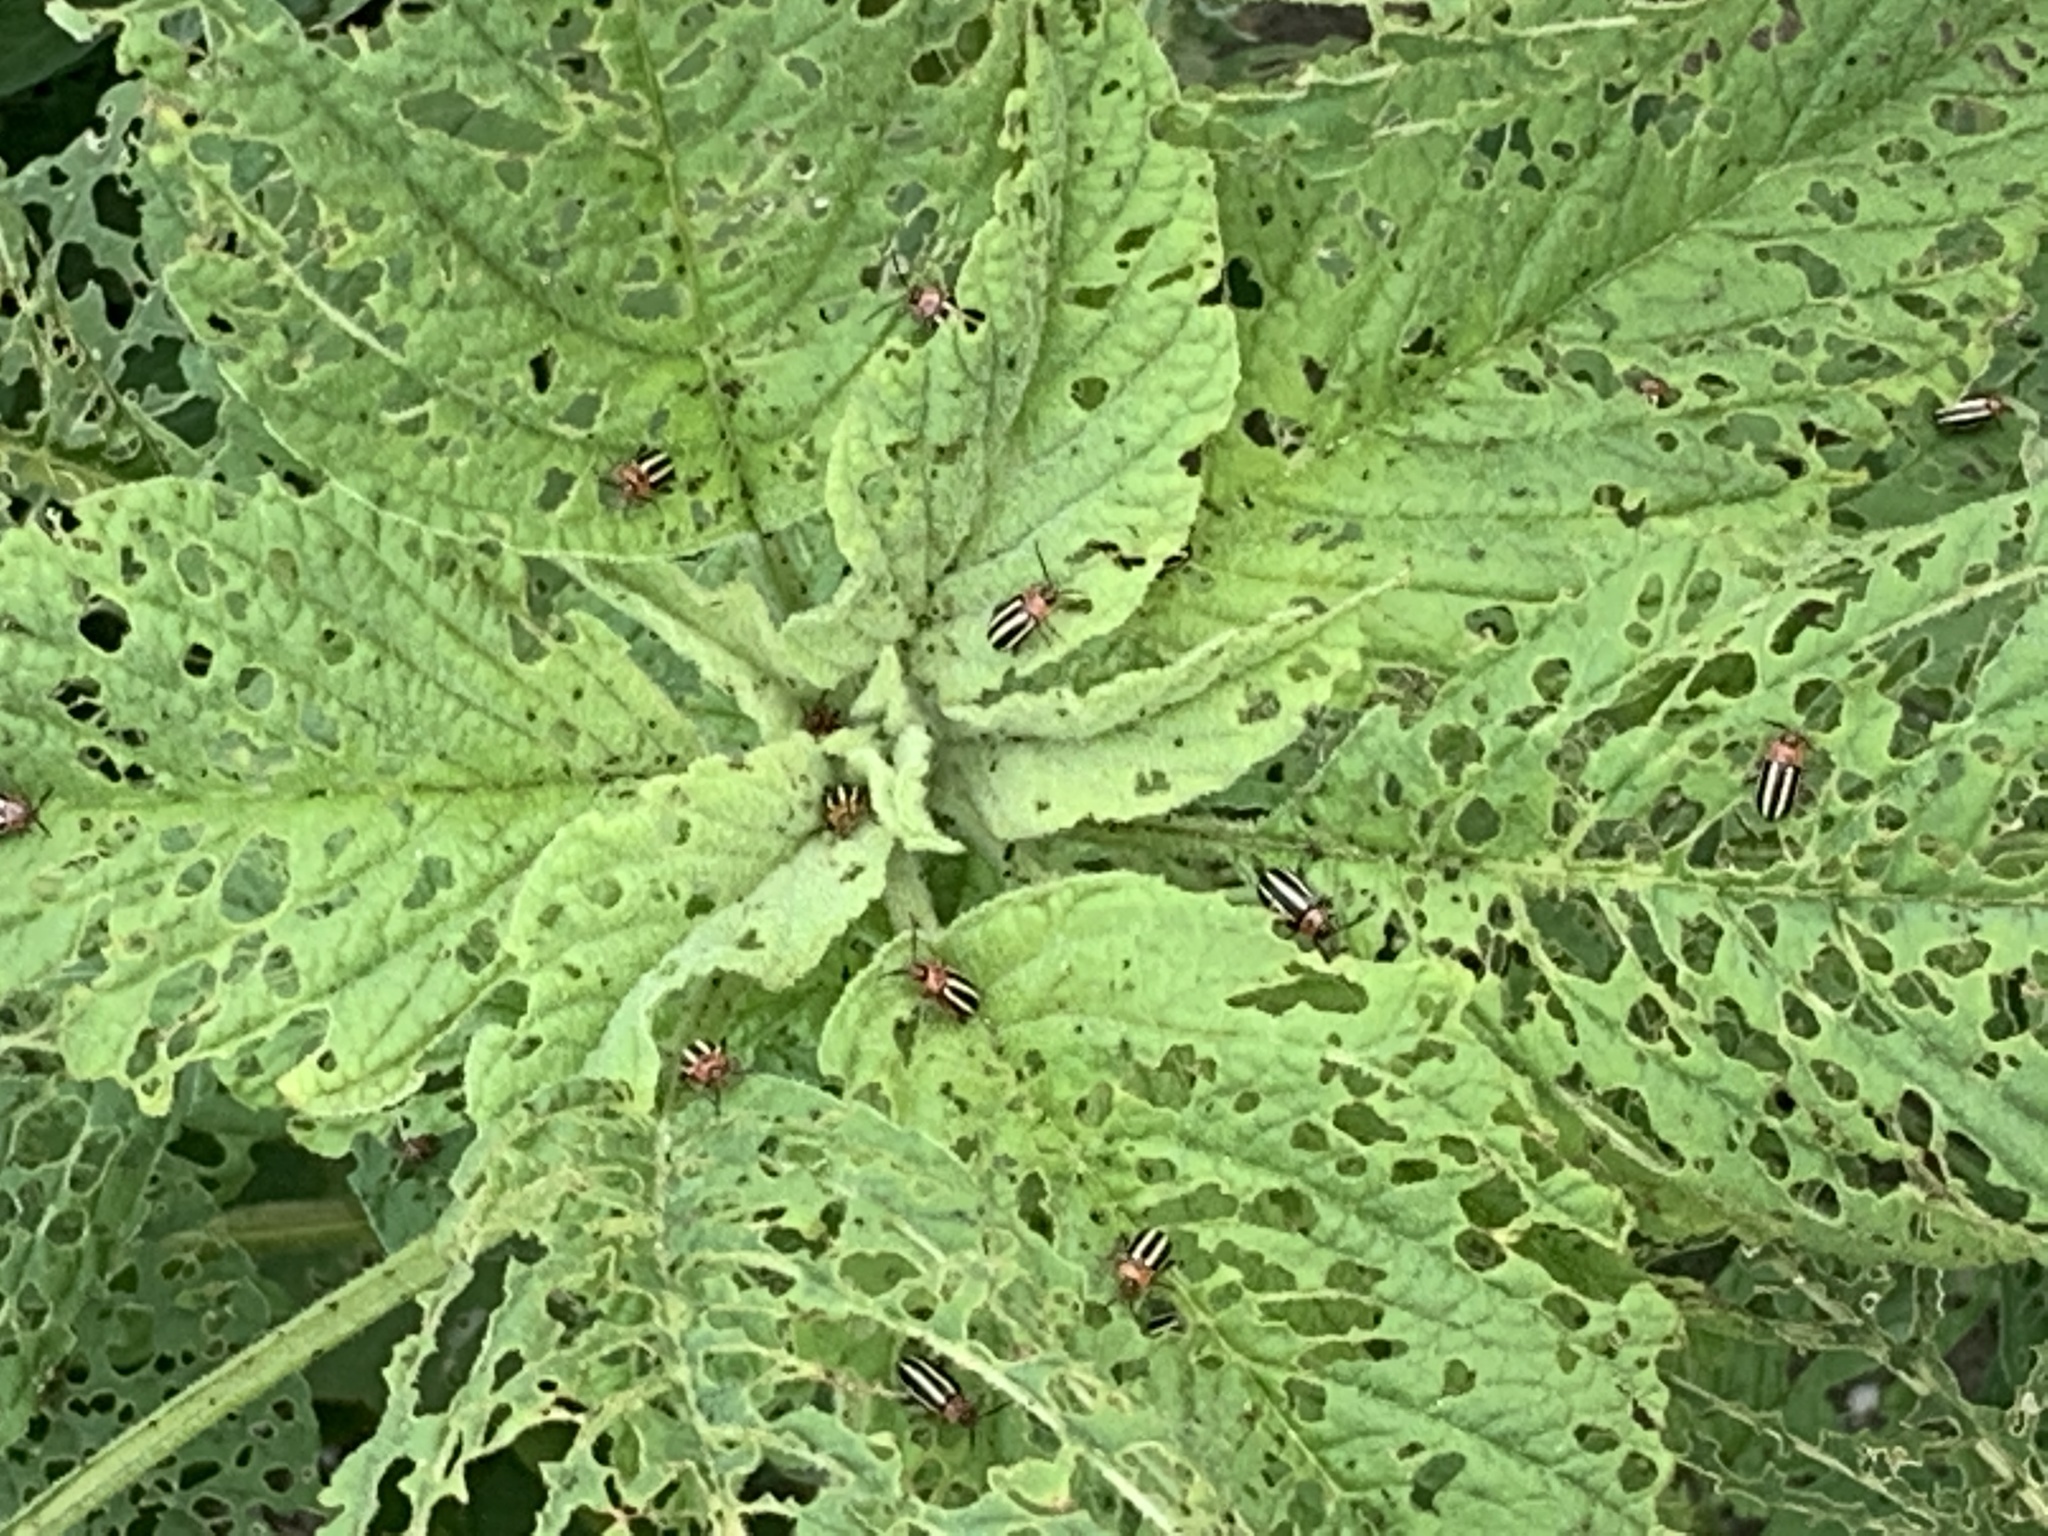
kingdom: Animalia
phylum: Arthropoda
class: Insecta
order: Coleoptera
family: Chrysomelidae
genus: Disonycha
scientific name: Disonycha glabrata
